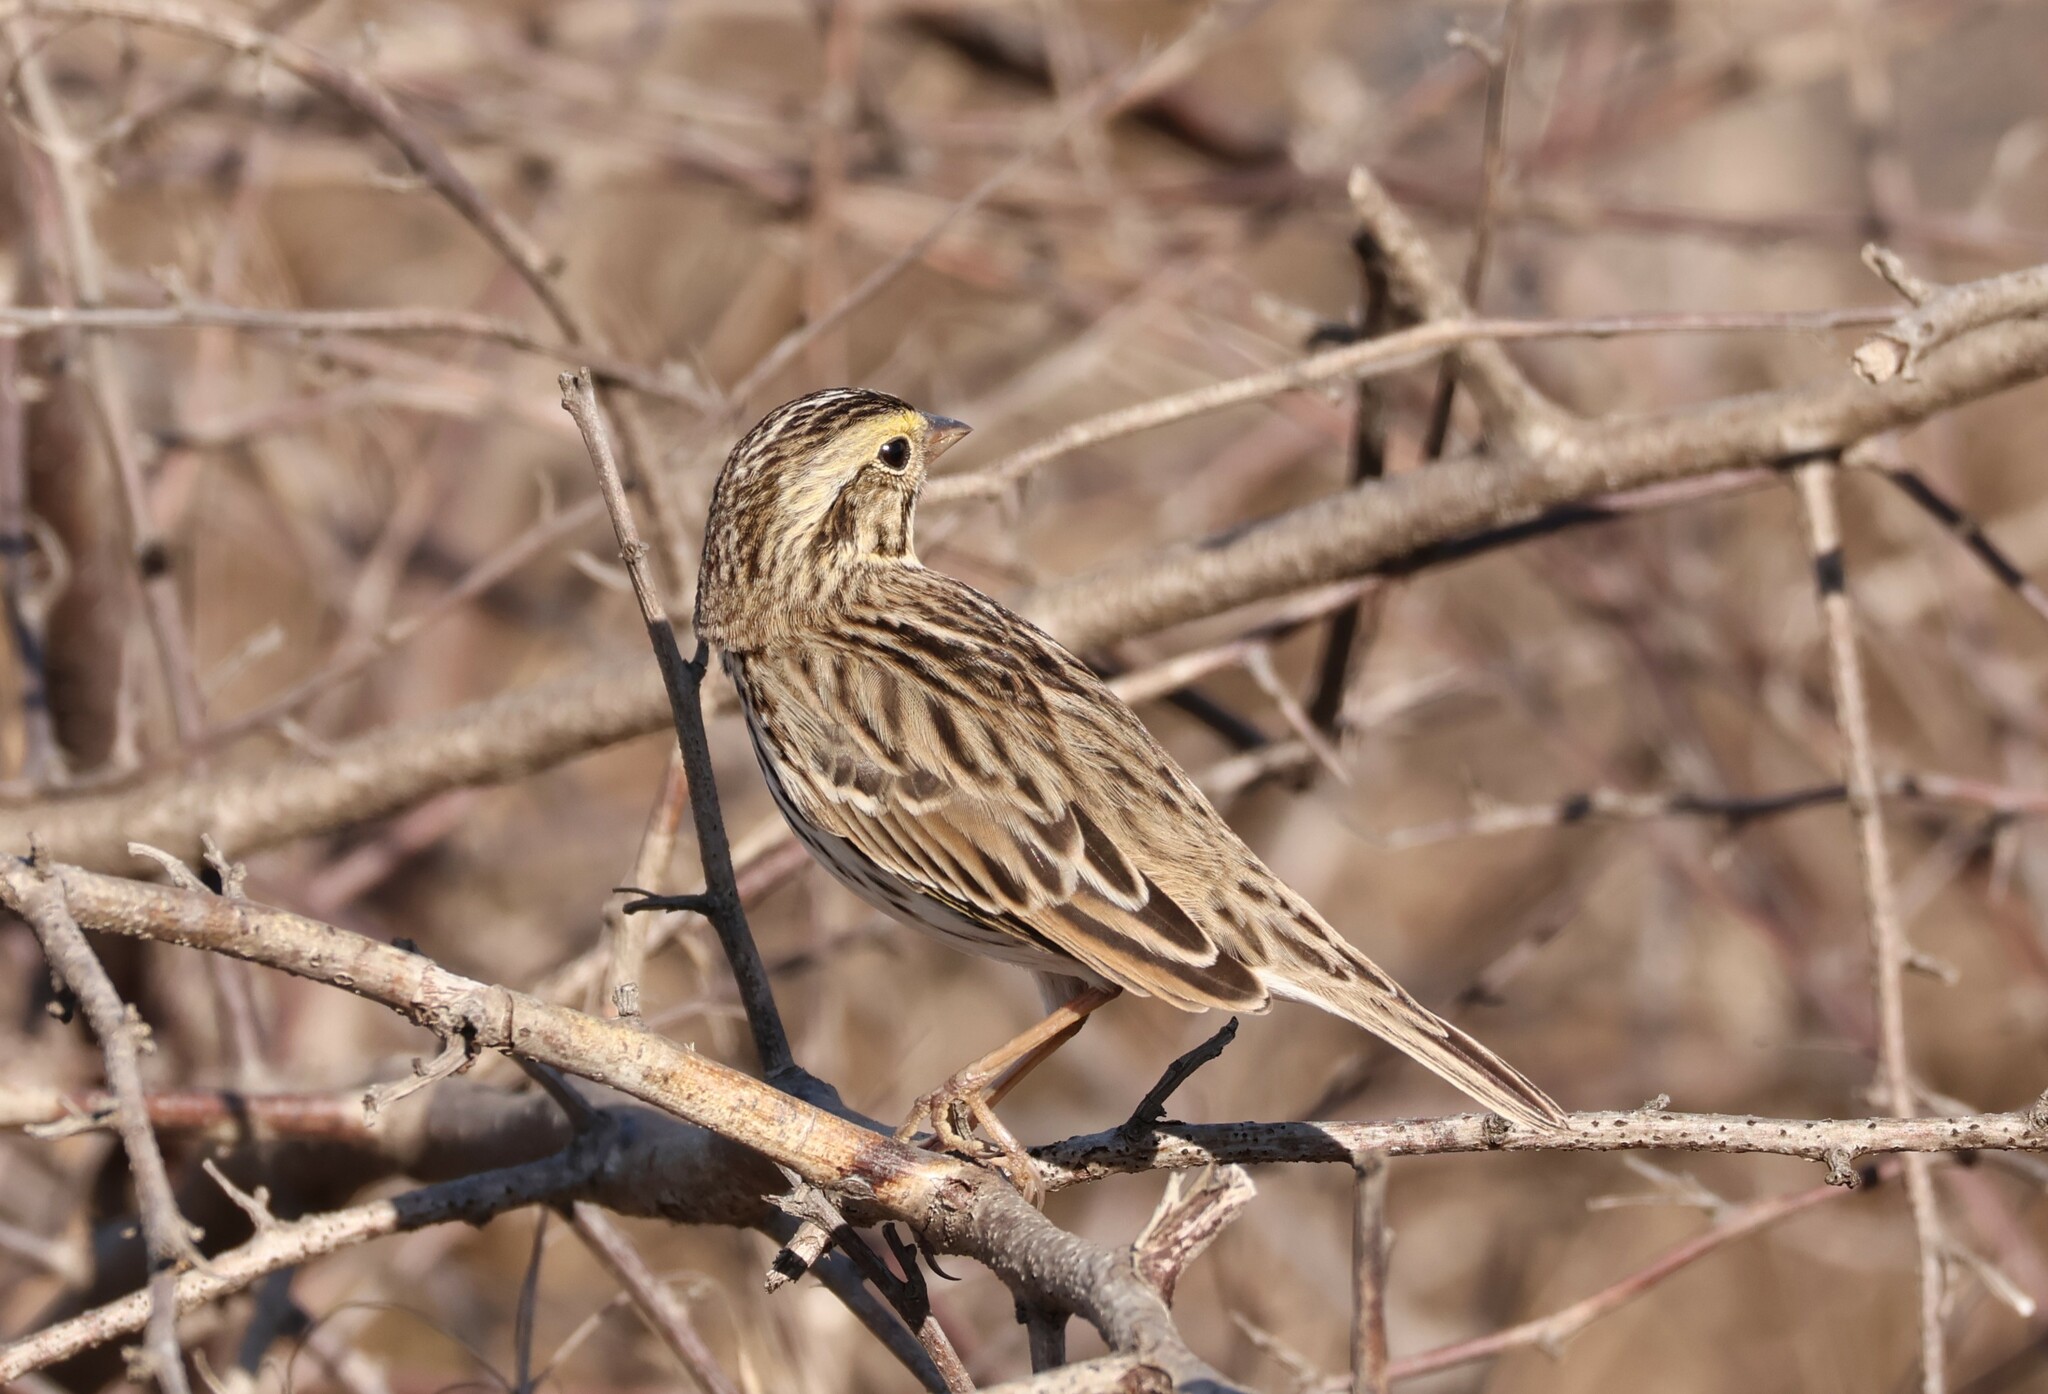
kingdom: Animalia
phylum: Chordata
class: Aves
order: Passeriformes
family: Passerellidae
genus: Passerculus
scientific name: Passerculus sandwichensis
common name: Savannah sparrow
